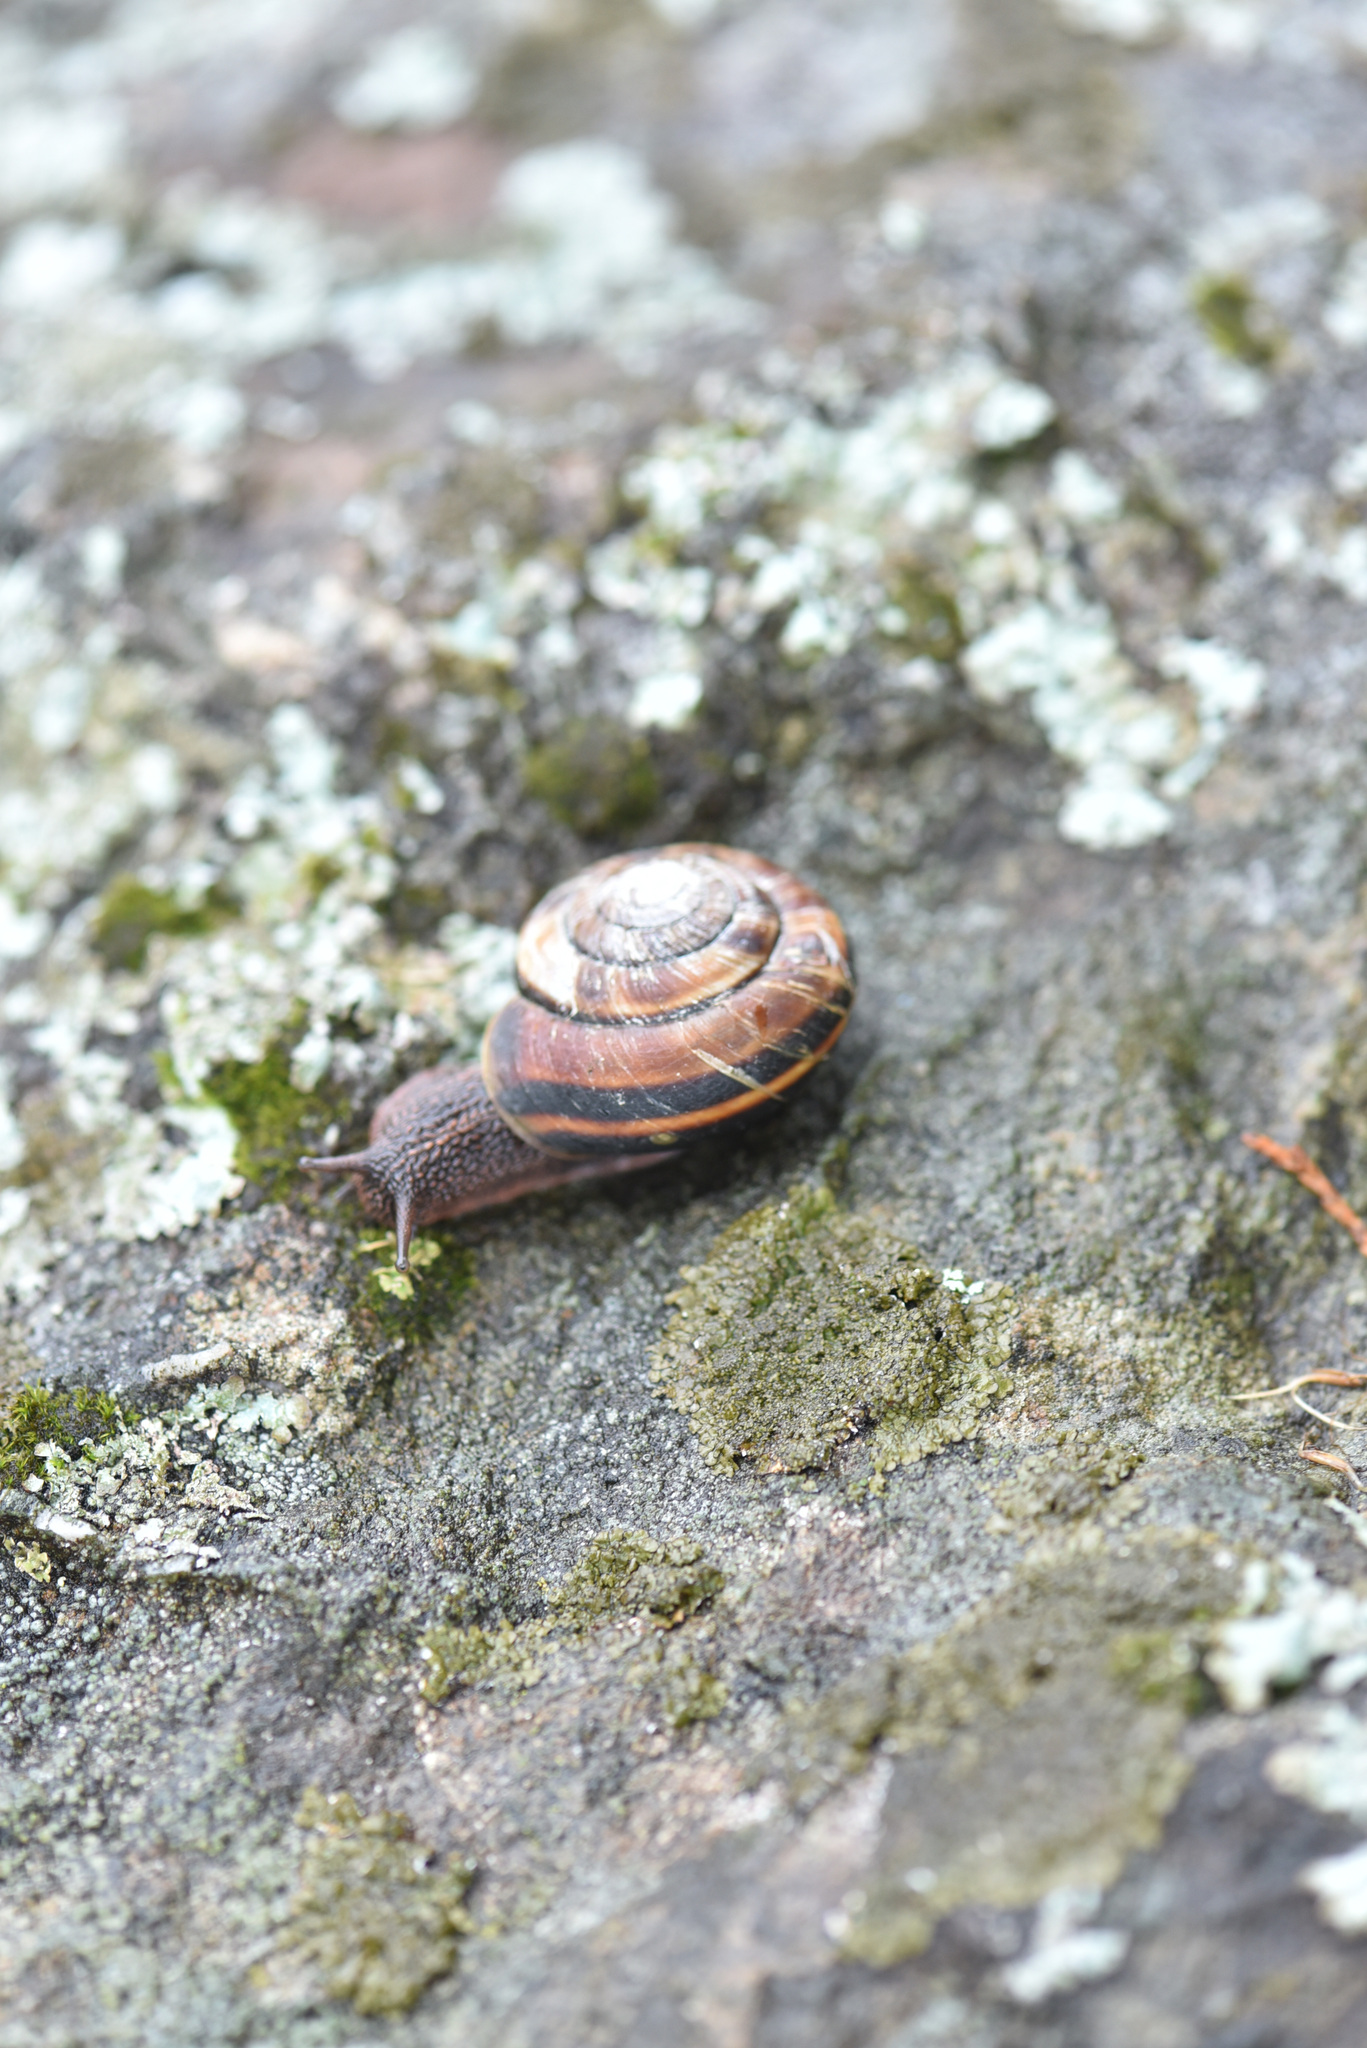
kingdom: Animalia
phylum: Mollusca
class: Gastropoda
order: Stylommatophora
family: Xanthonychidae
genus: Monadenia
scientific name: Monadenia fidelis
